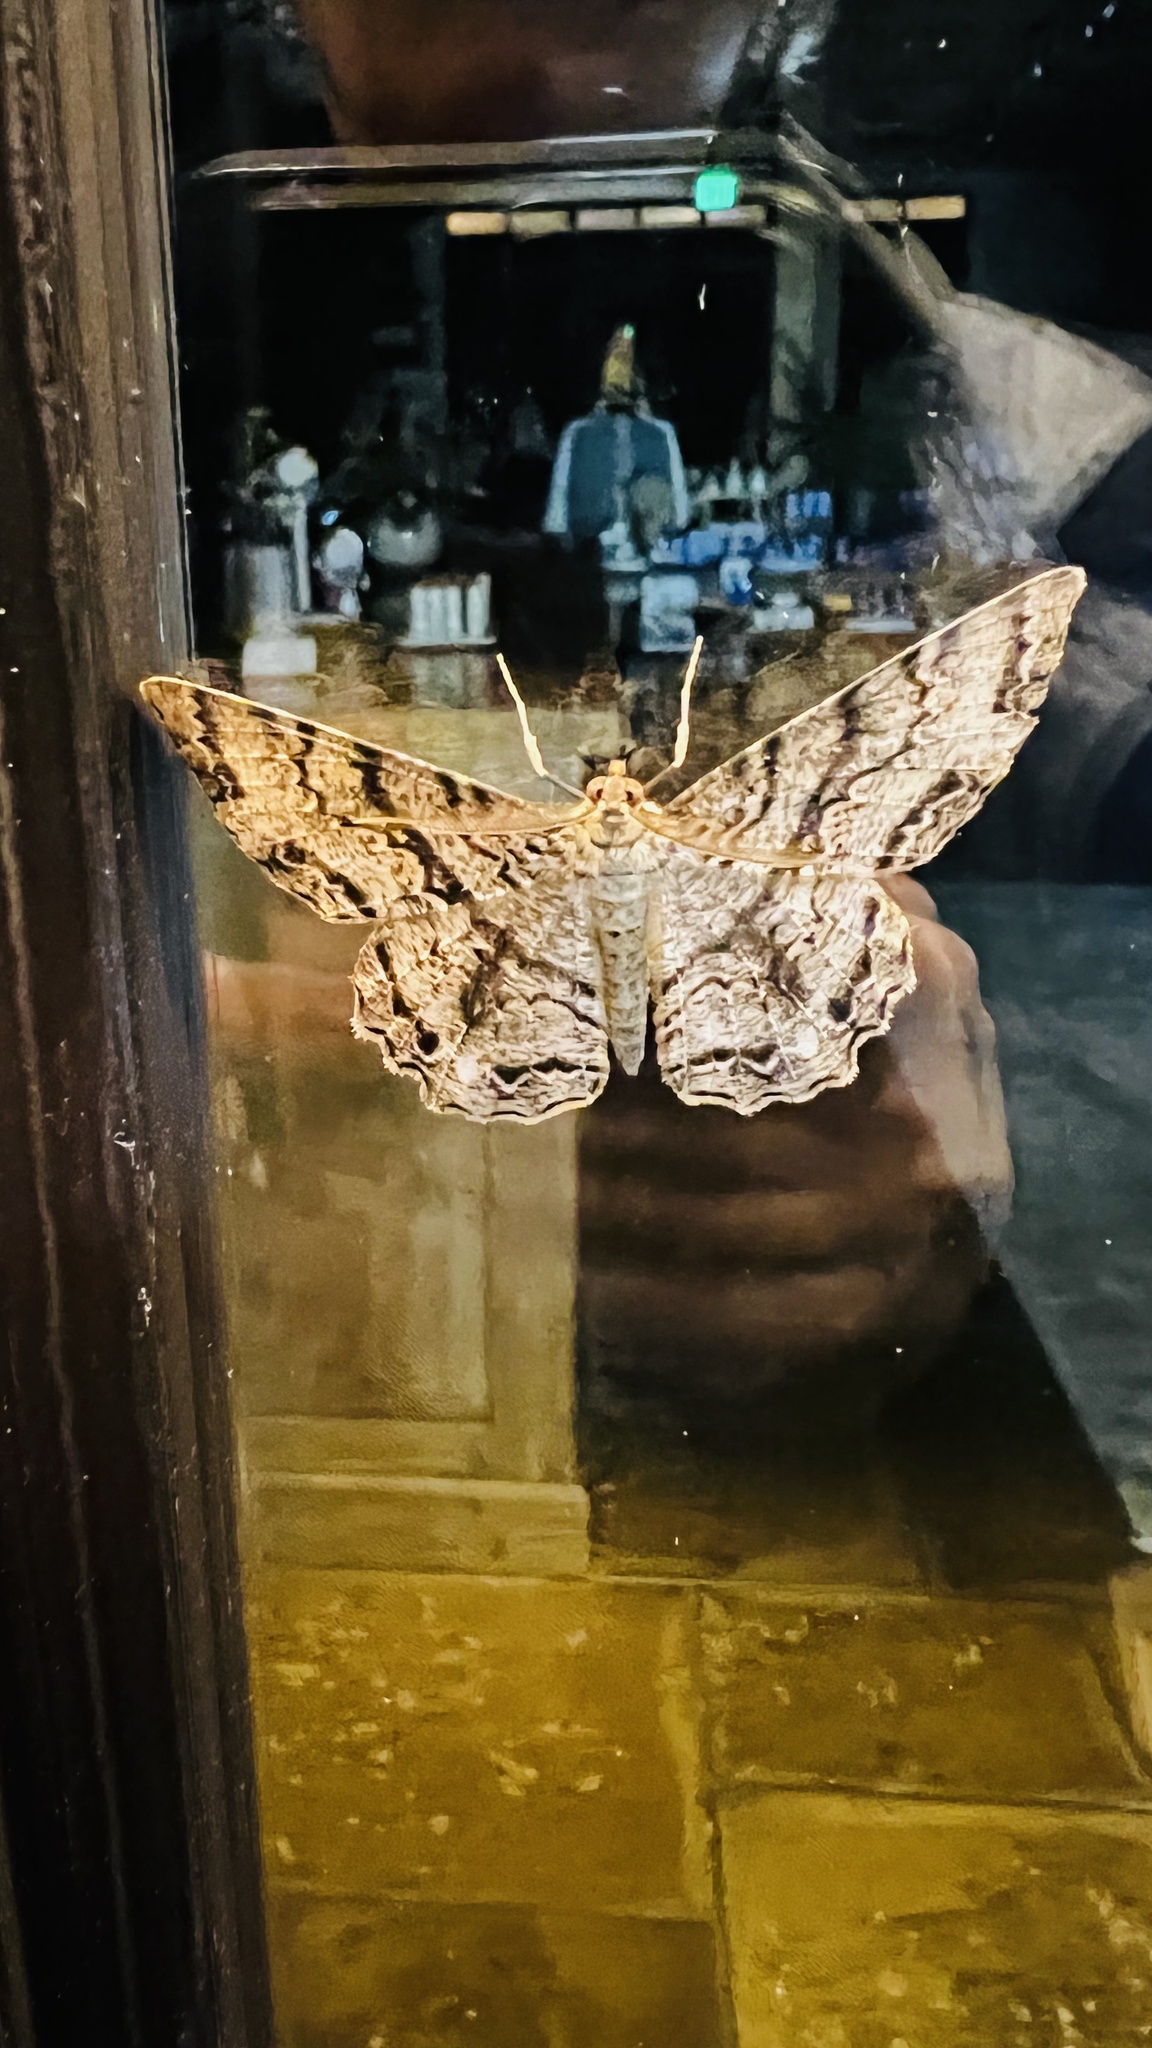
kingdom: Animalia
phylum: Arthropoda
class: Insecta
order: Lepidoptera
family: Geometridae
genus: Epimecis
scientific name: Epimecis hortaria
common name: Tulip-tree beauty
